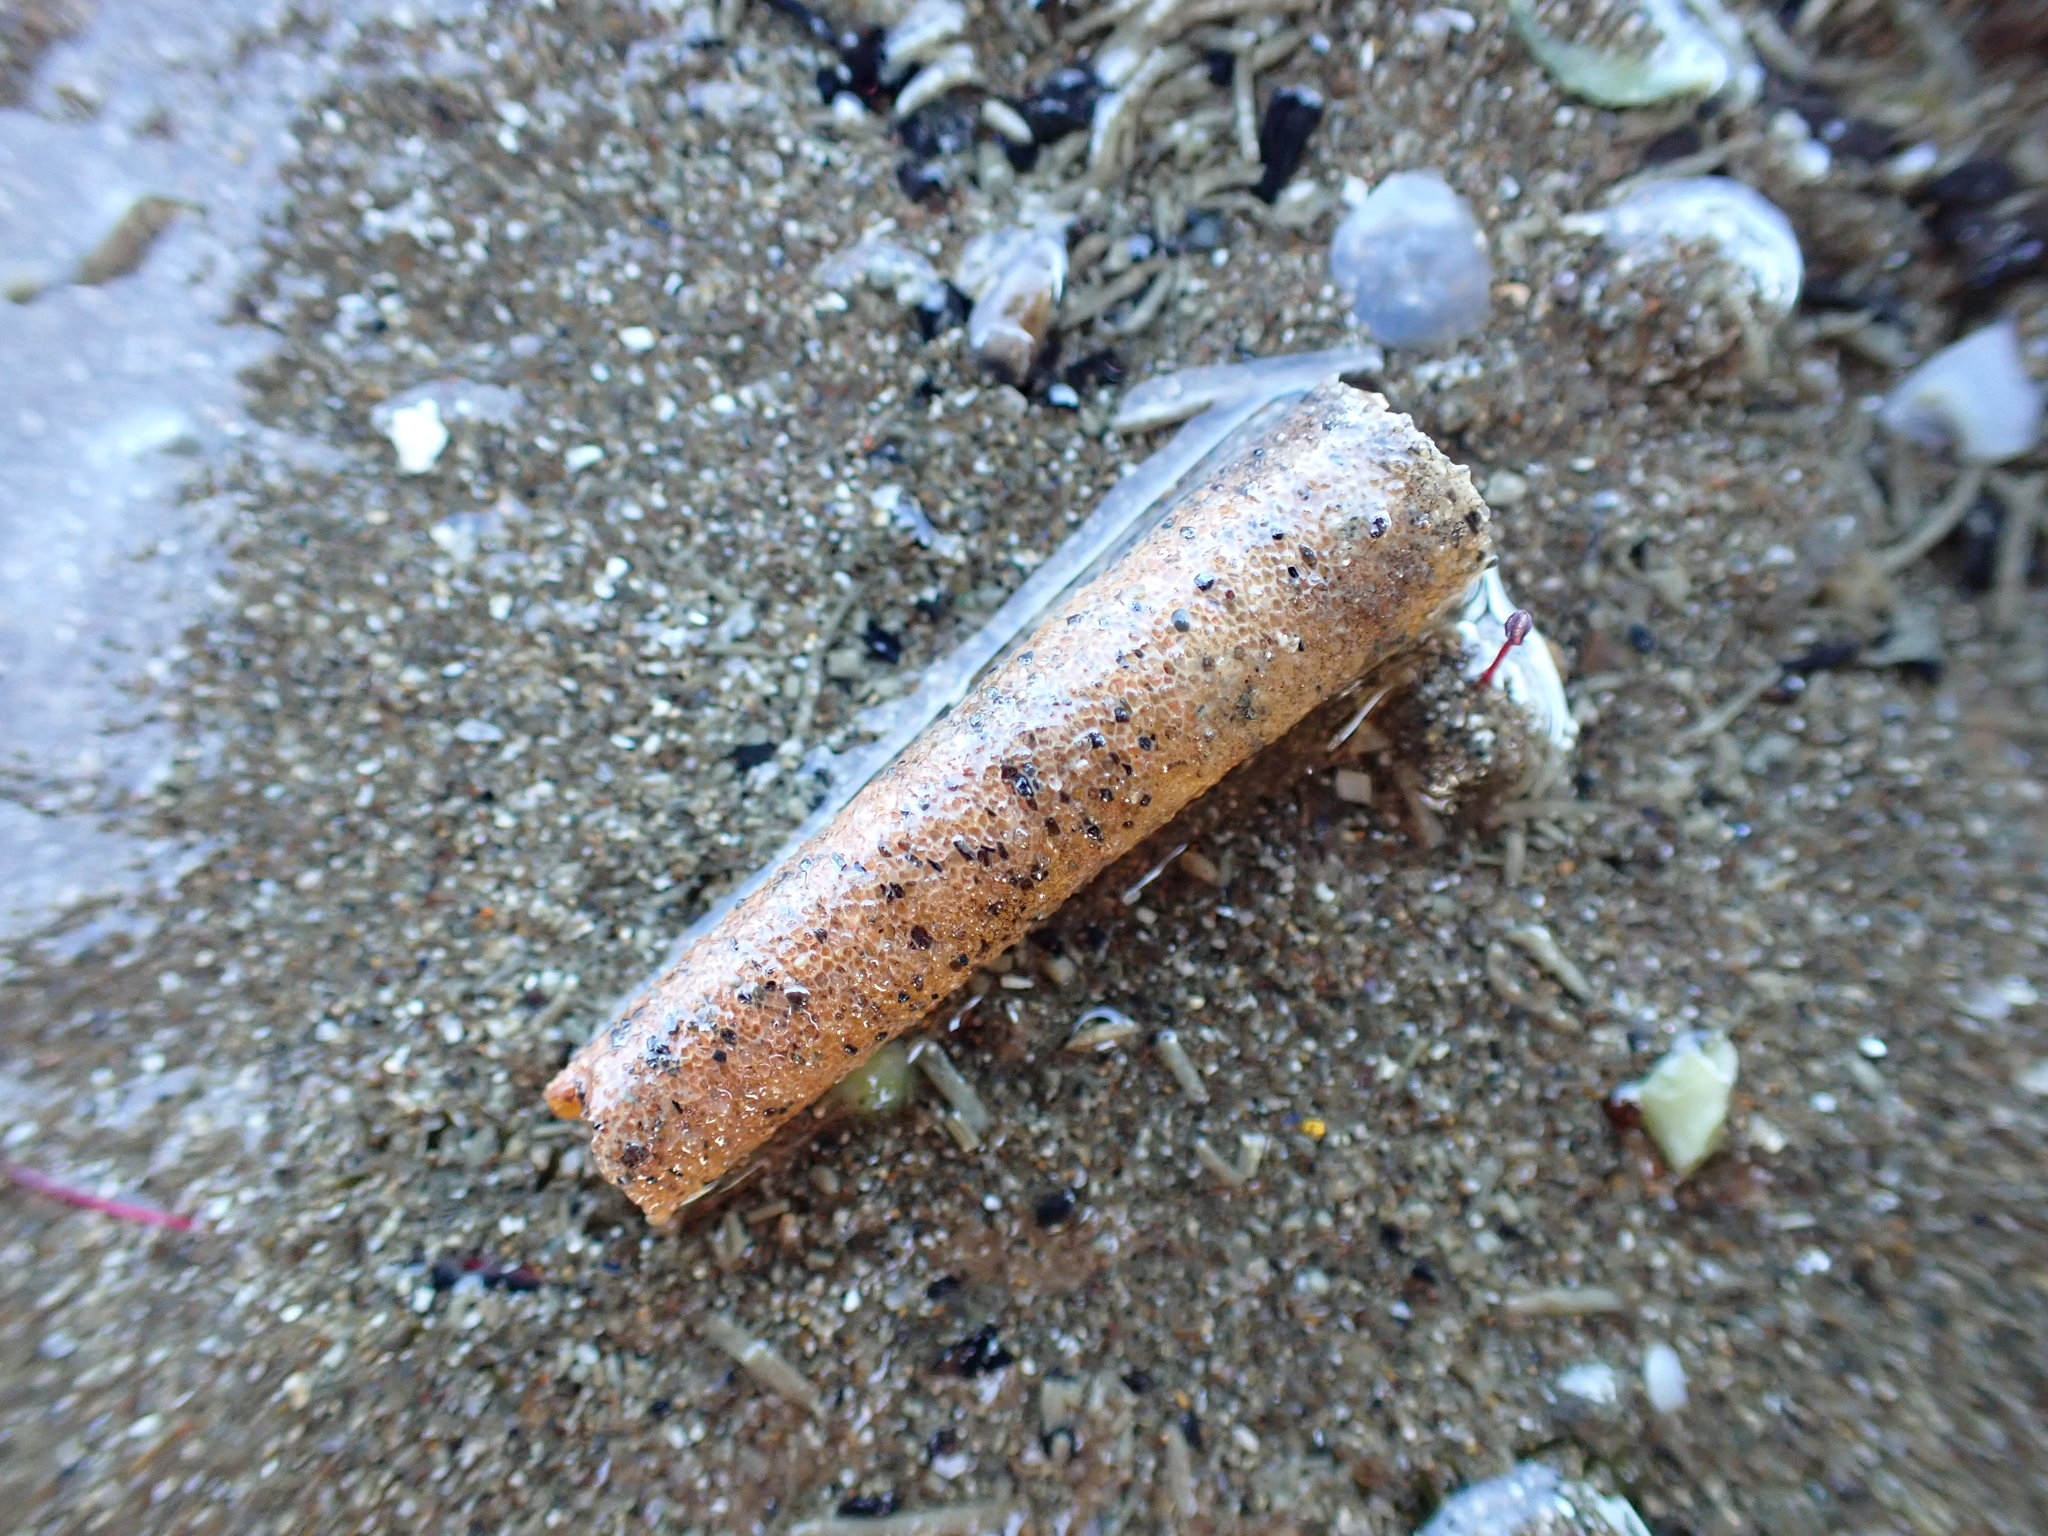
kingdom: Animalia
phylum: Annelida
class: Polychaeta
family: Pectinariidae
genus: Lagis
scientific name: Lagis australis
